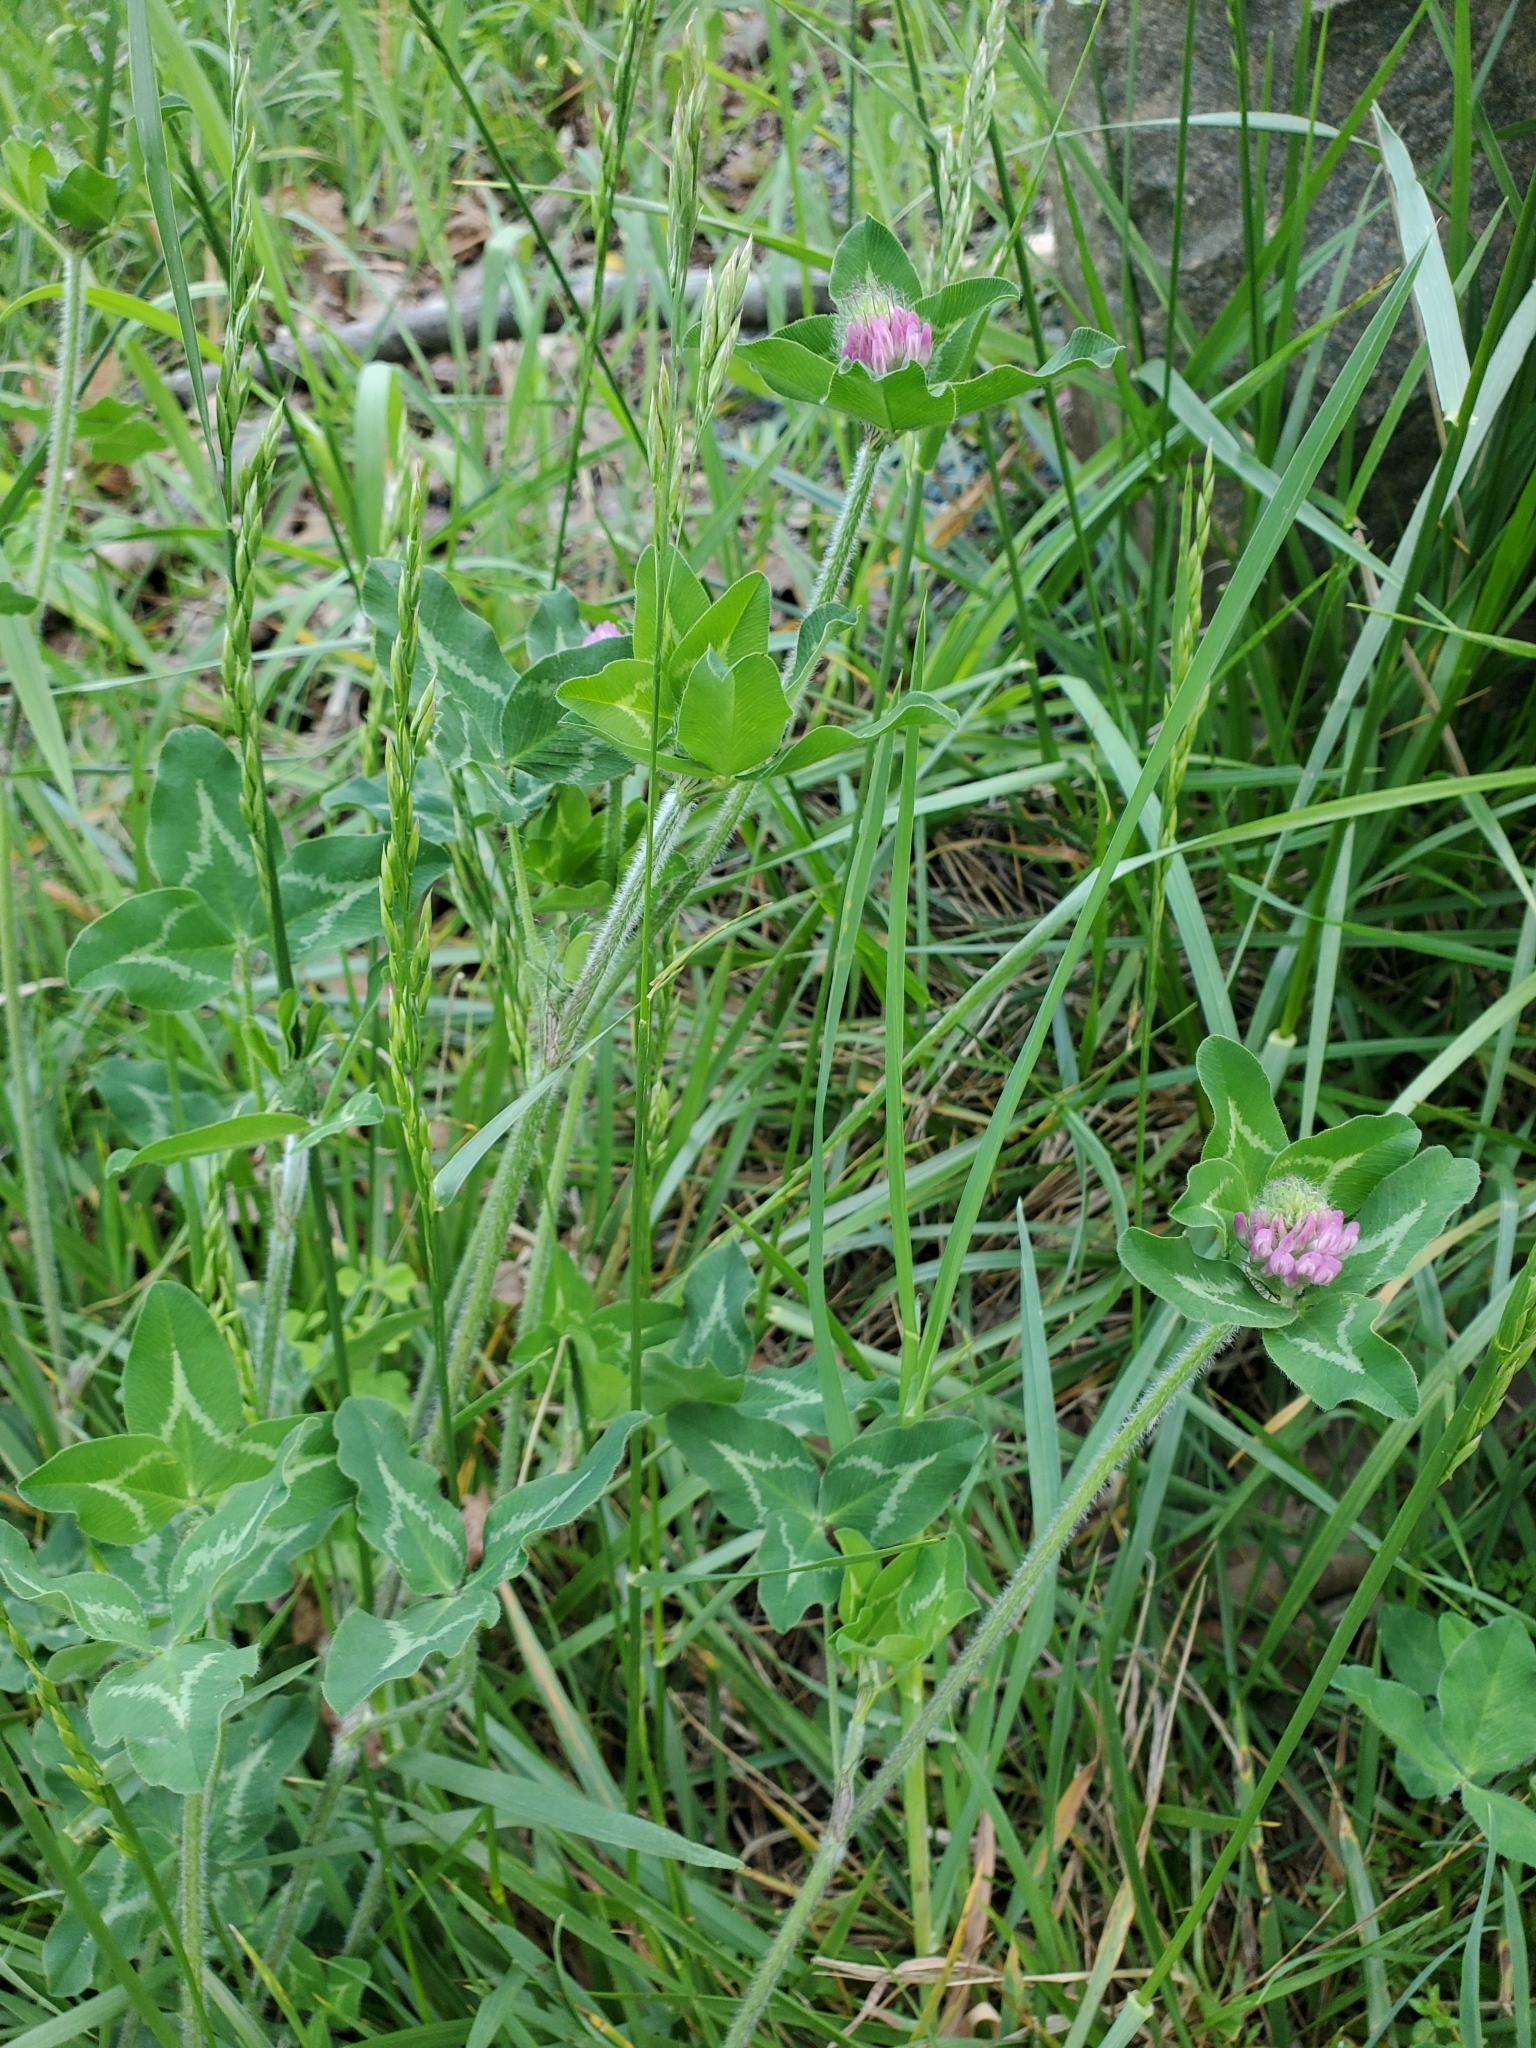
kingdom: Plantae
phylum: Tracheophyta
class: Magnoliopsida
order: Fabales
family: Fabaceae
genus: Trifolium
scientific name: Trifolium pratense
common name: Red clover
